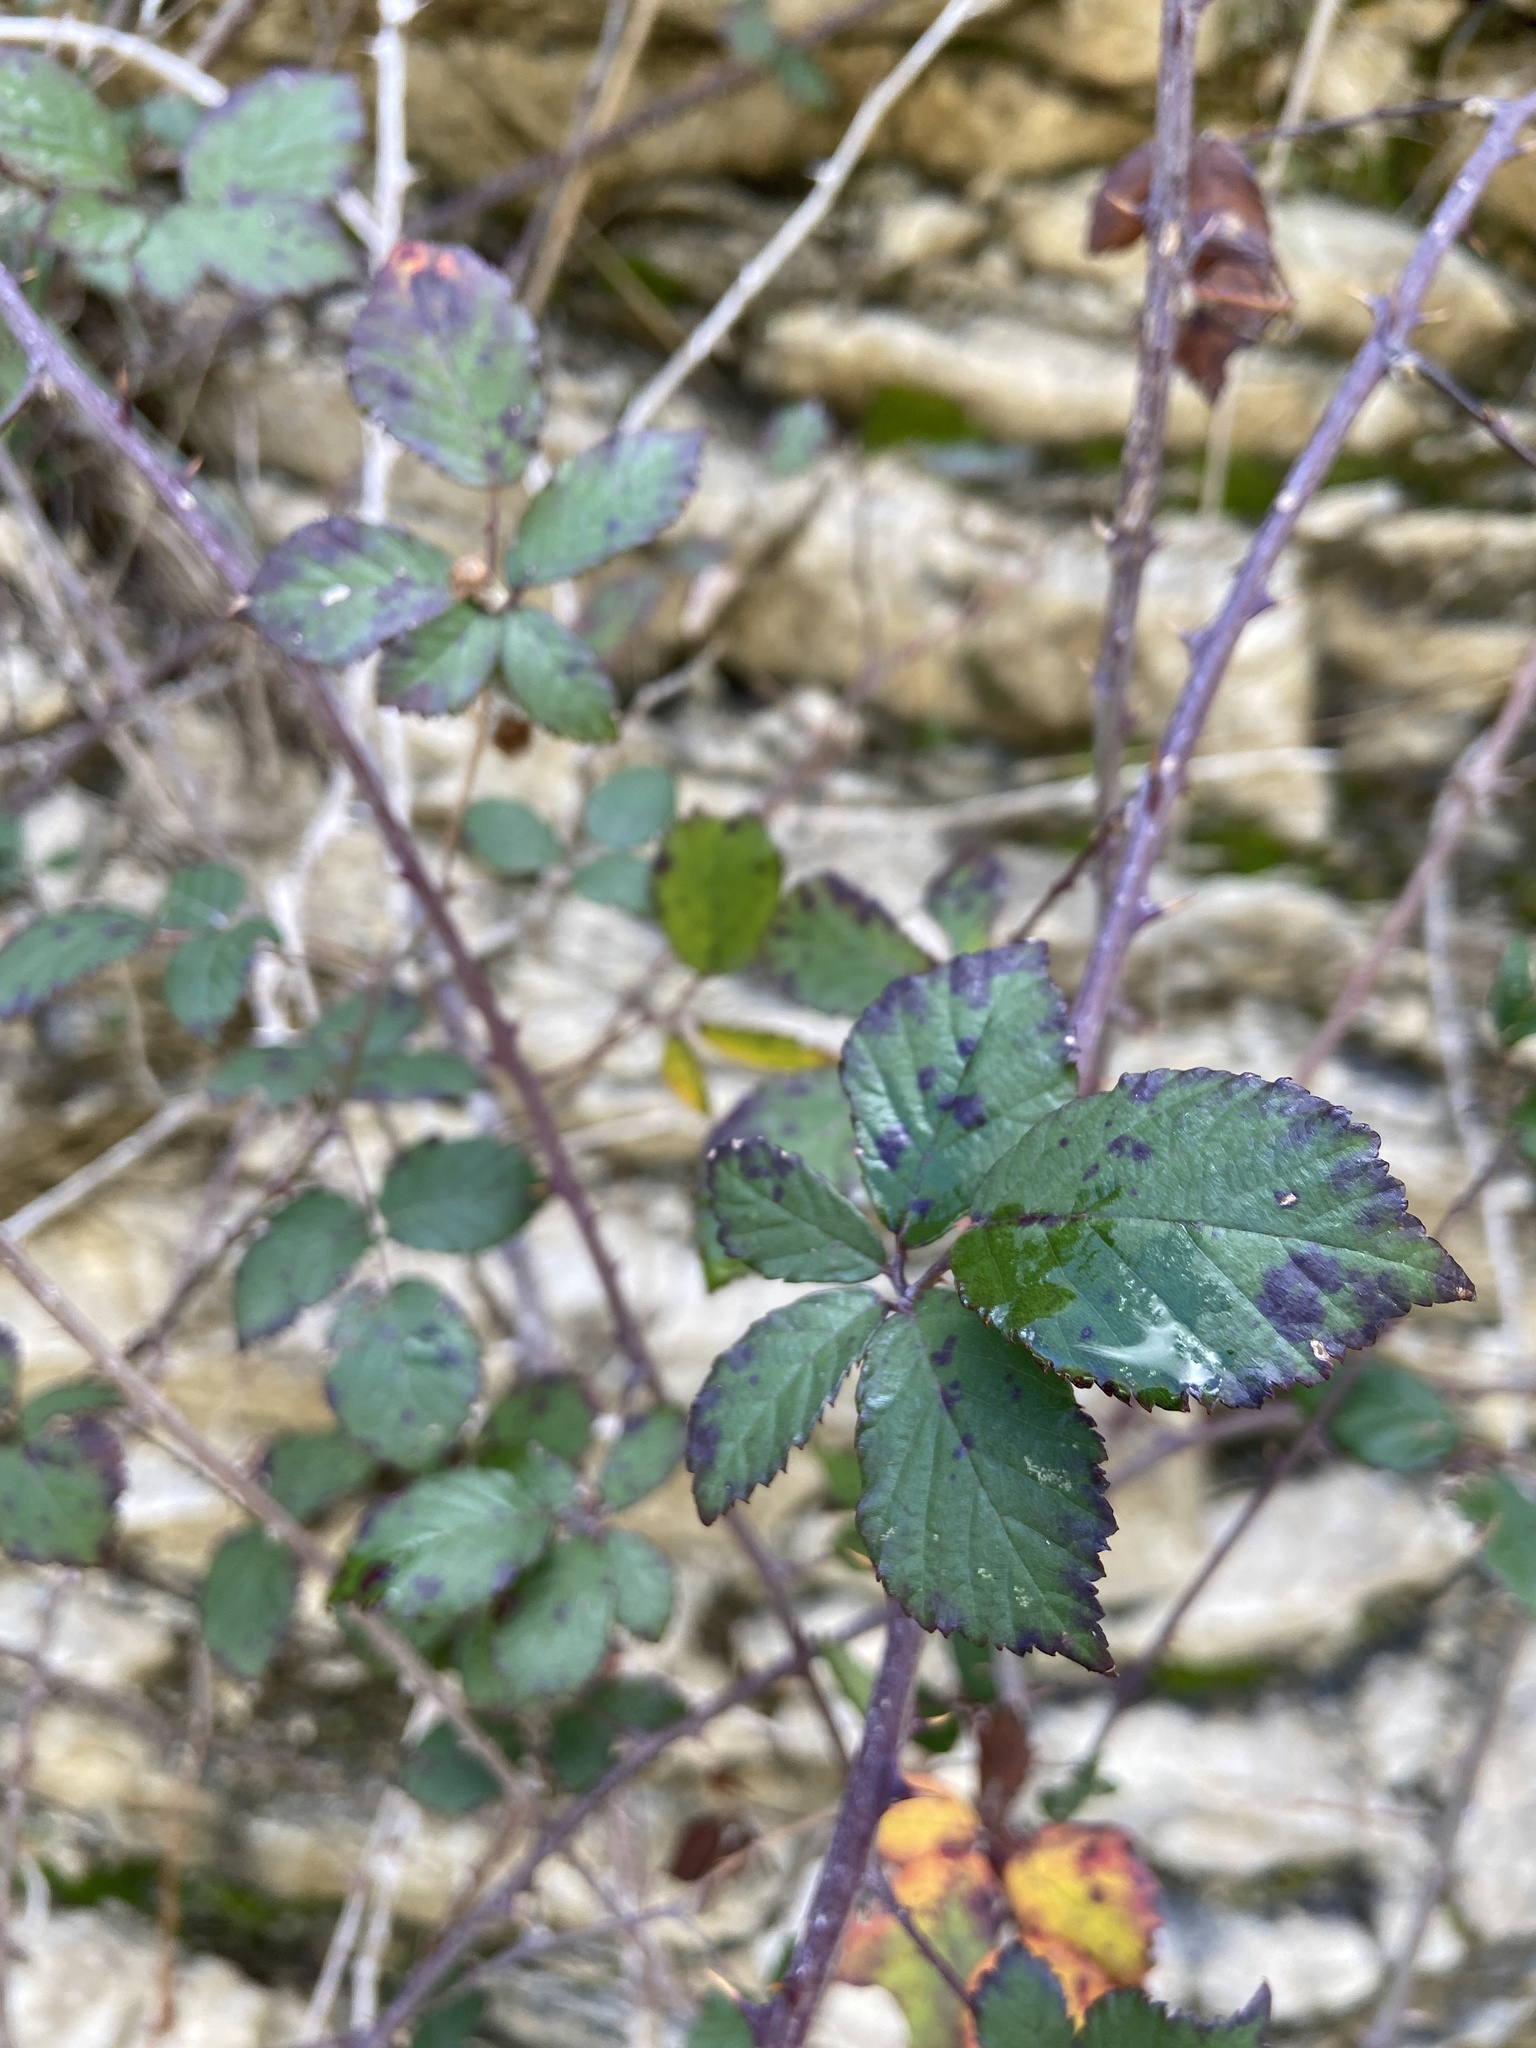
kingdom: Plantae
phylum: Tracheophyta
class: Magnoliopsida
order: Rosales
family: Rosaceae
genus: Rubus
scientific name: Rubus ulmifolius
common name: Elmleaf blackberry
